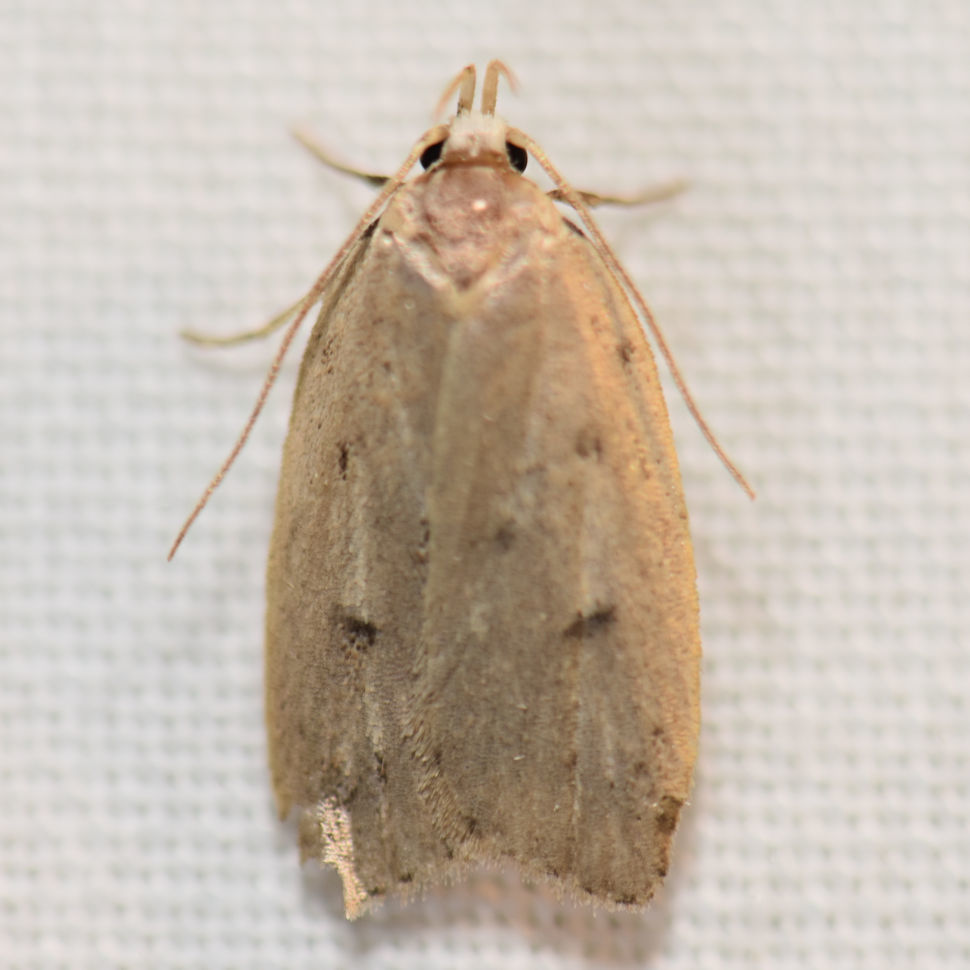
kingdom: Animalia
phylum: Arthropoda
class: Insecta
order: Lepidoptera
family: Peleopodidae
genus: Machimia
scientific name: Machimia tentoriferella
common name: Gold-striped leaftier moth
